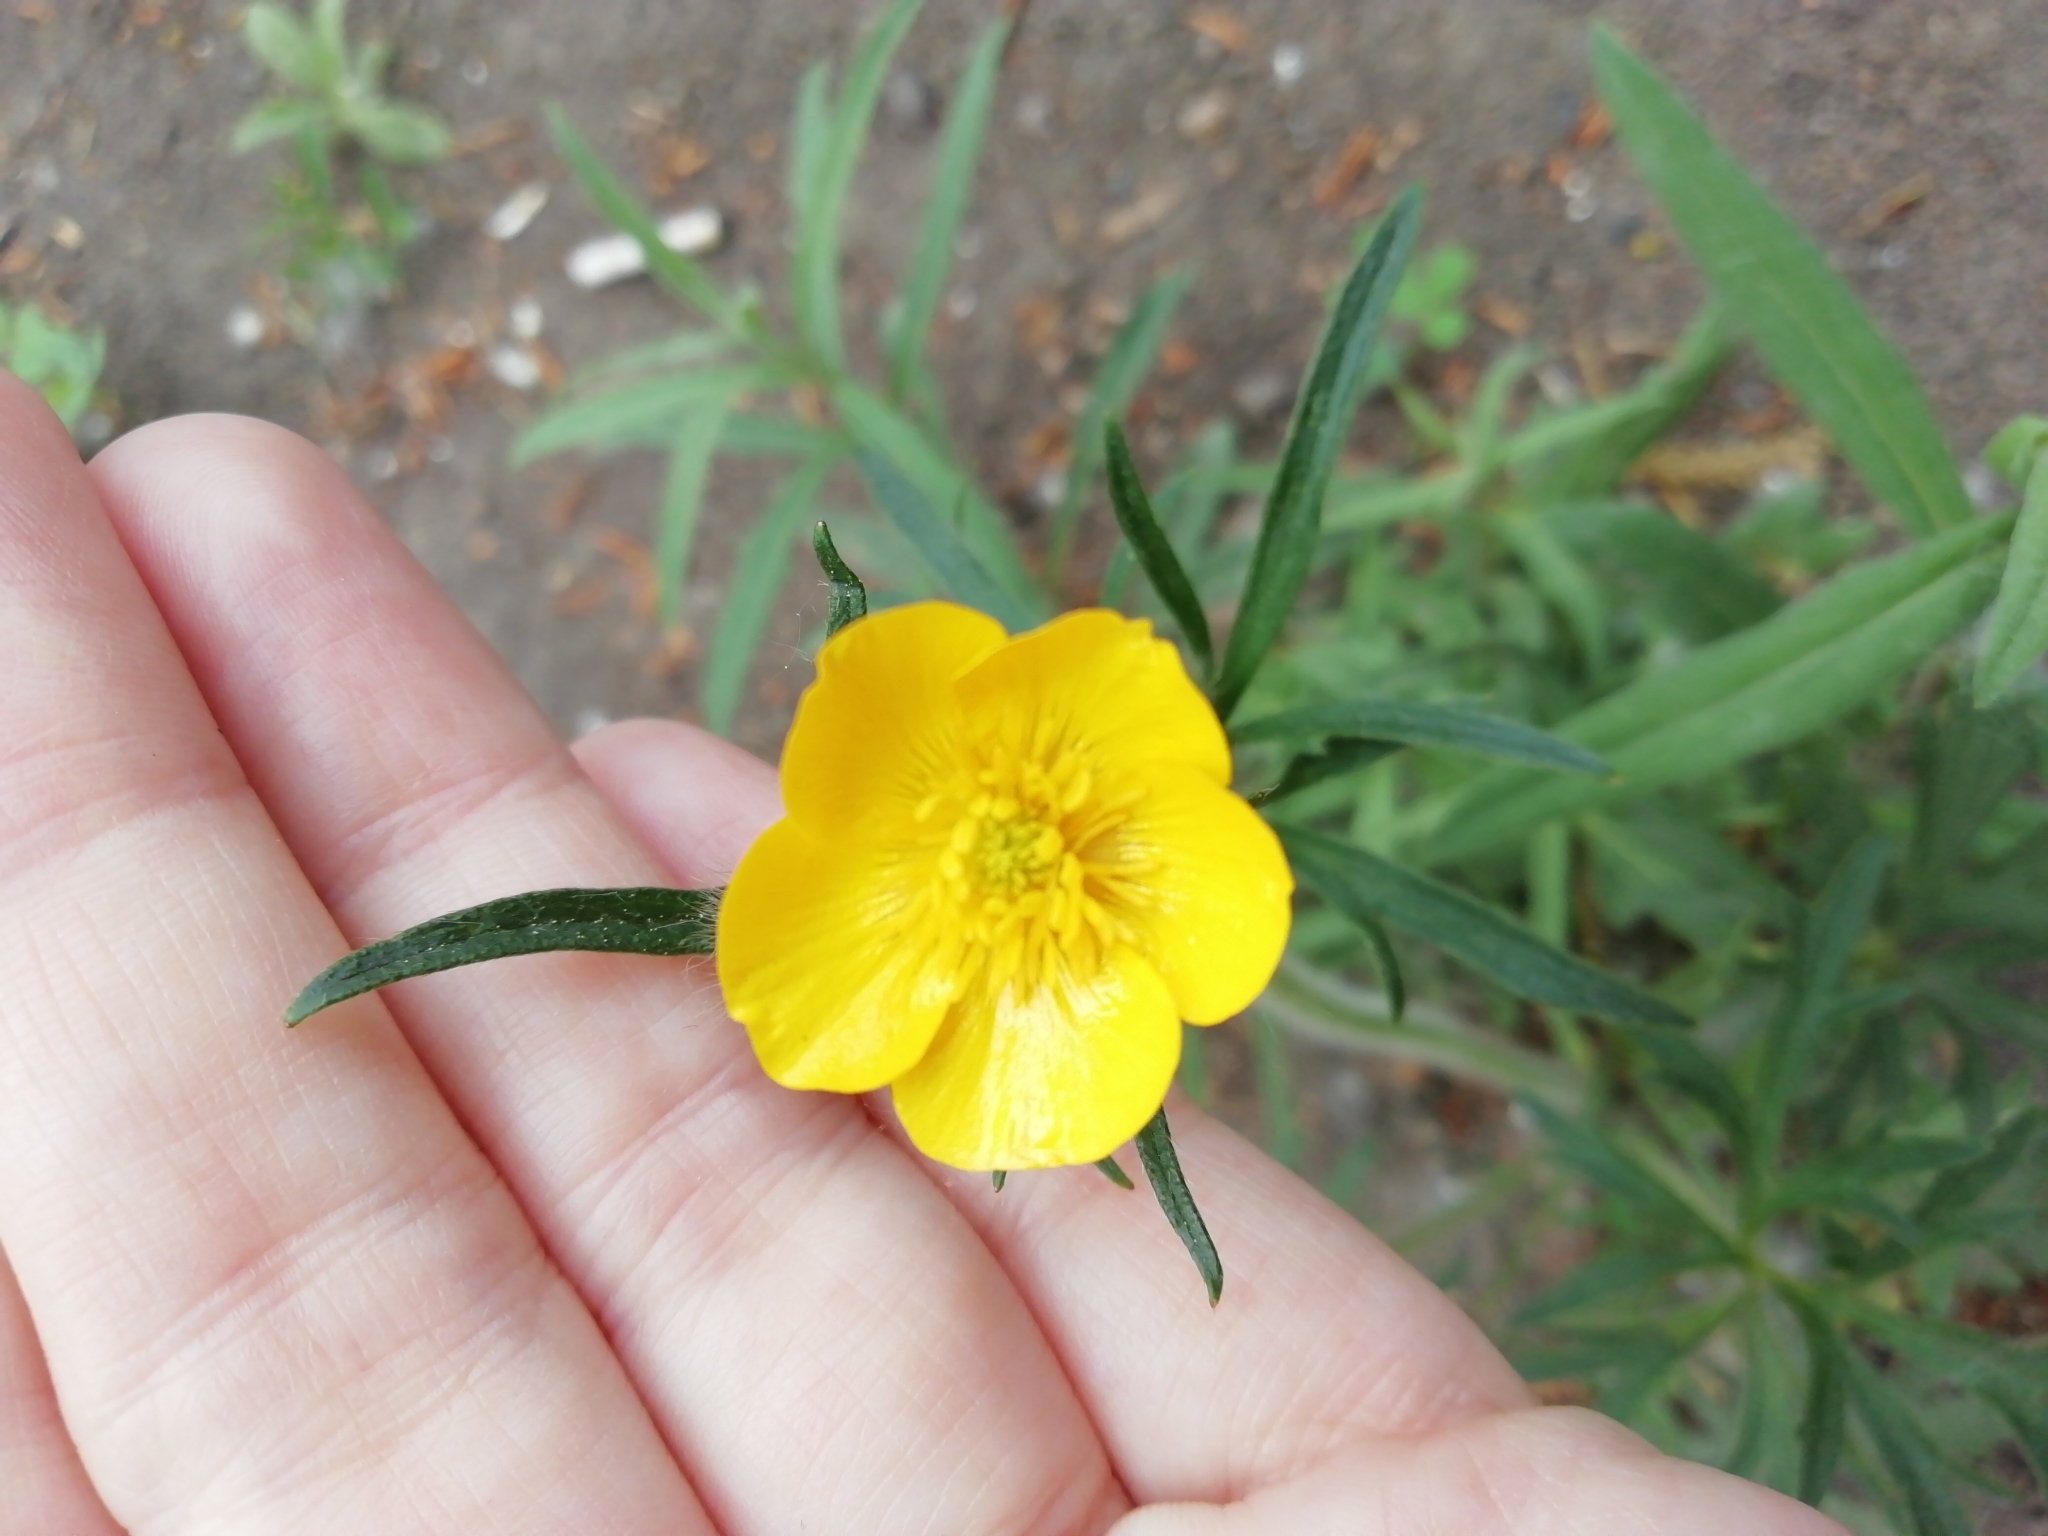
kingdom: Plantae
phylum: Tracheophyta
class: Magnoliopsida
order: Ranunculales
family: Ranunculaceae
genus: Ranunculus
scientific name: Ranunculus polyanthemos
